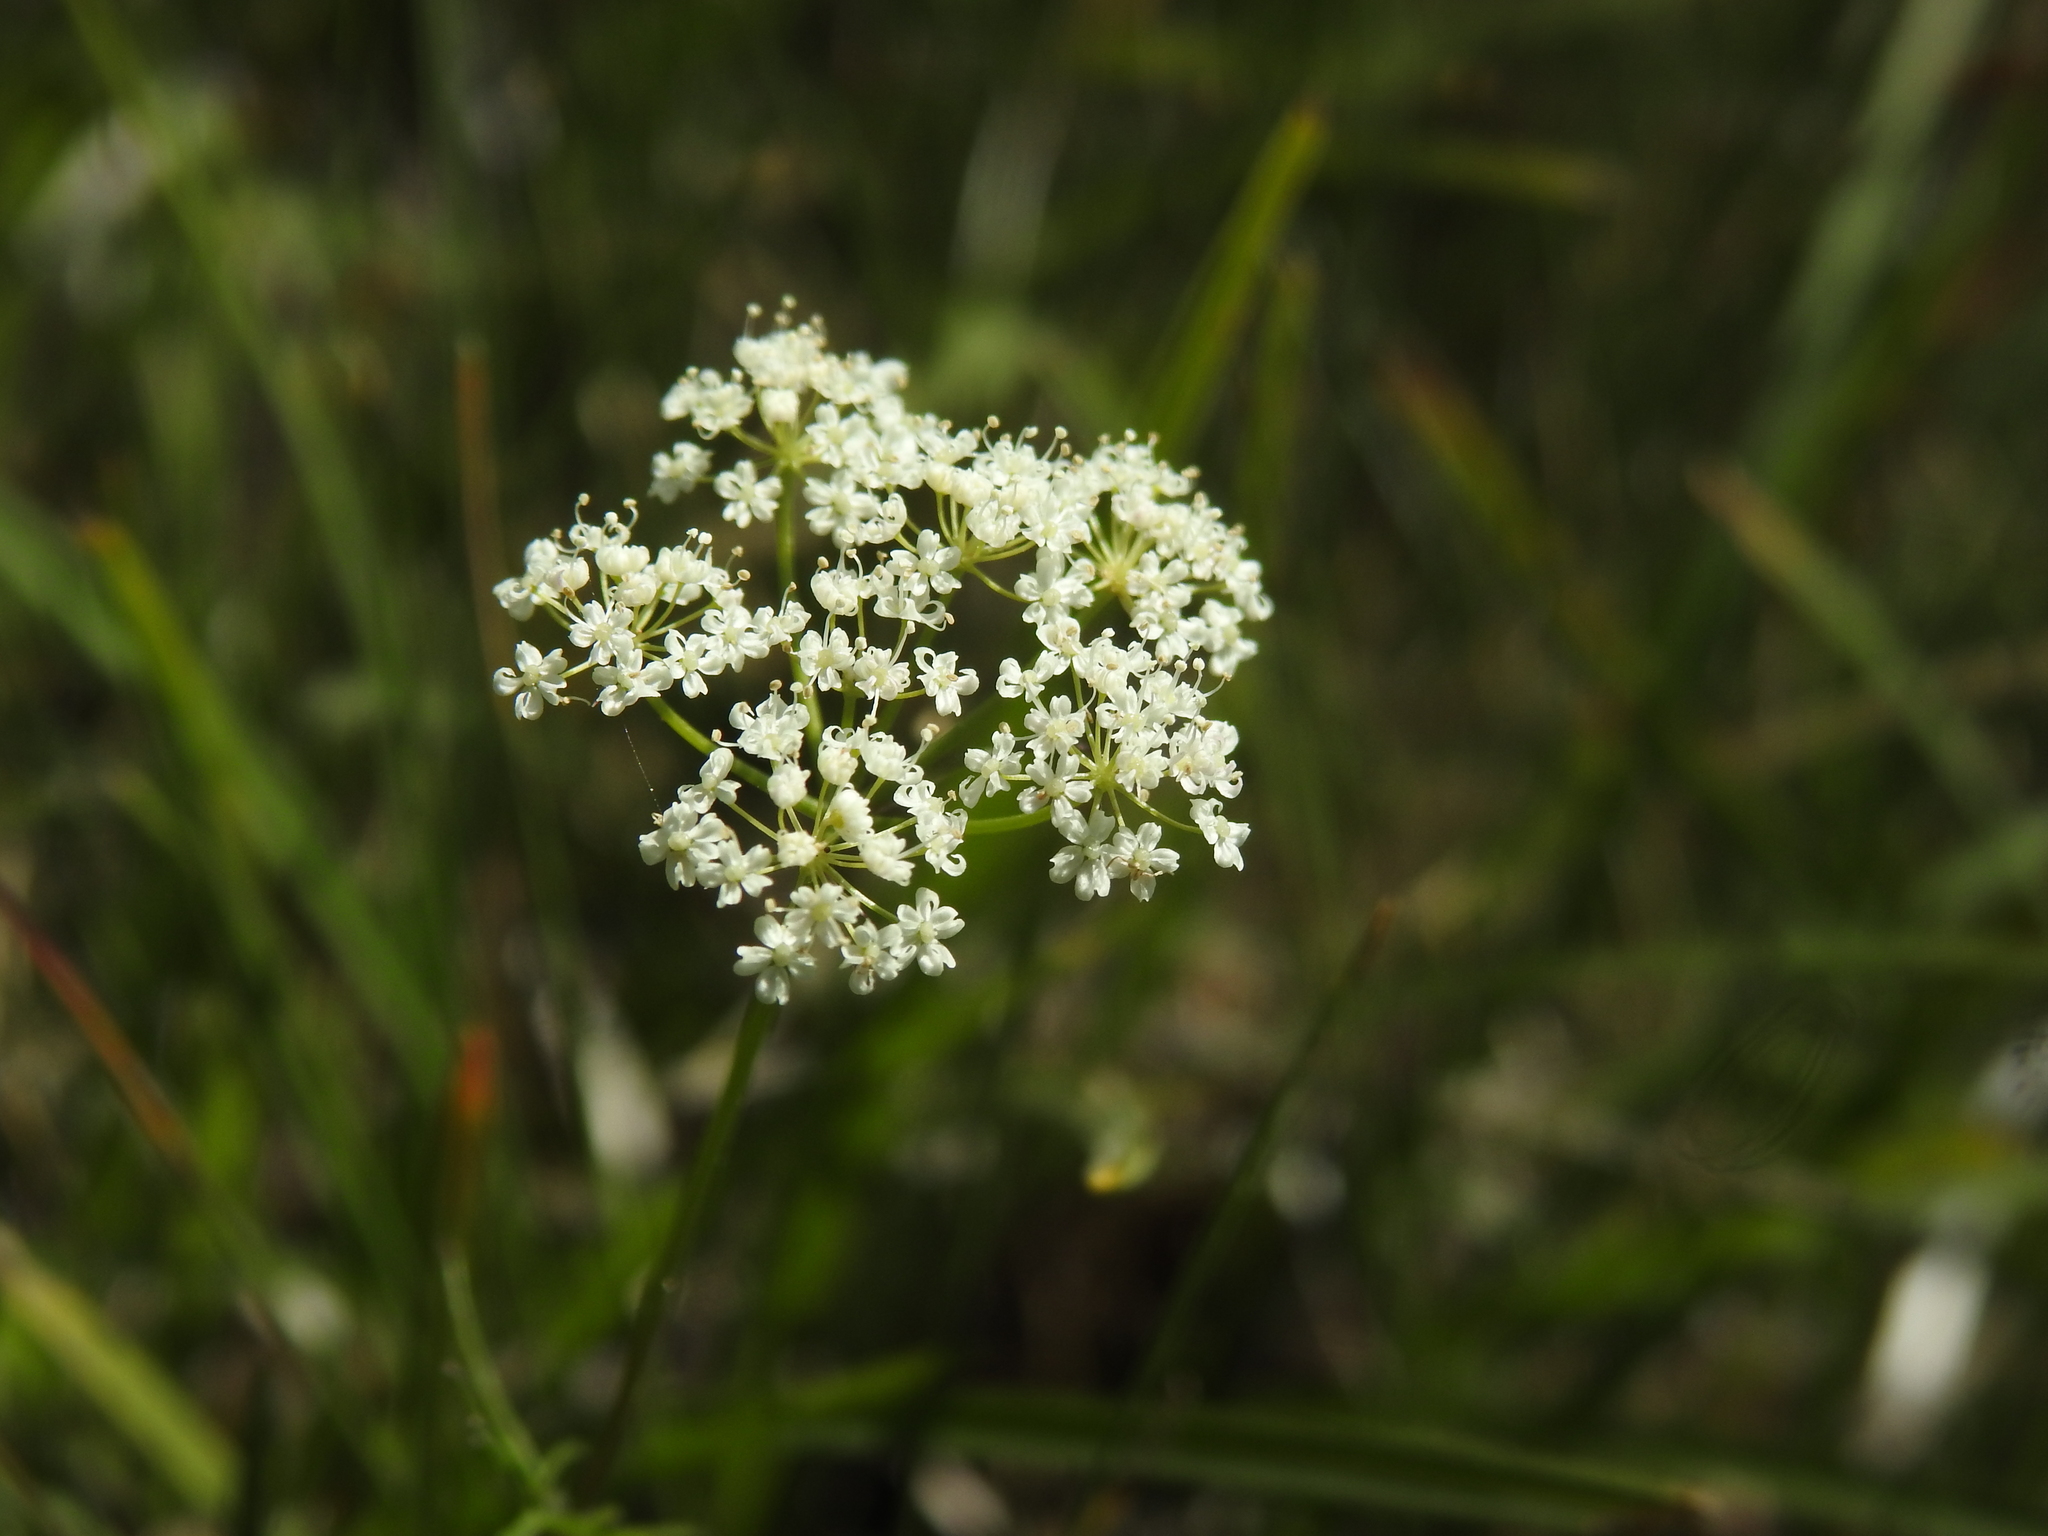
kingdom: Plantae
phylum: Tracheophyta
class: Magnoliopsida
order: Apiales
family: Apiaceae
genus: Conopodium
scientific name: Conopodium majus
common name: Pignut
